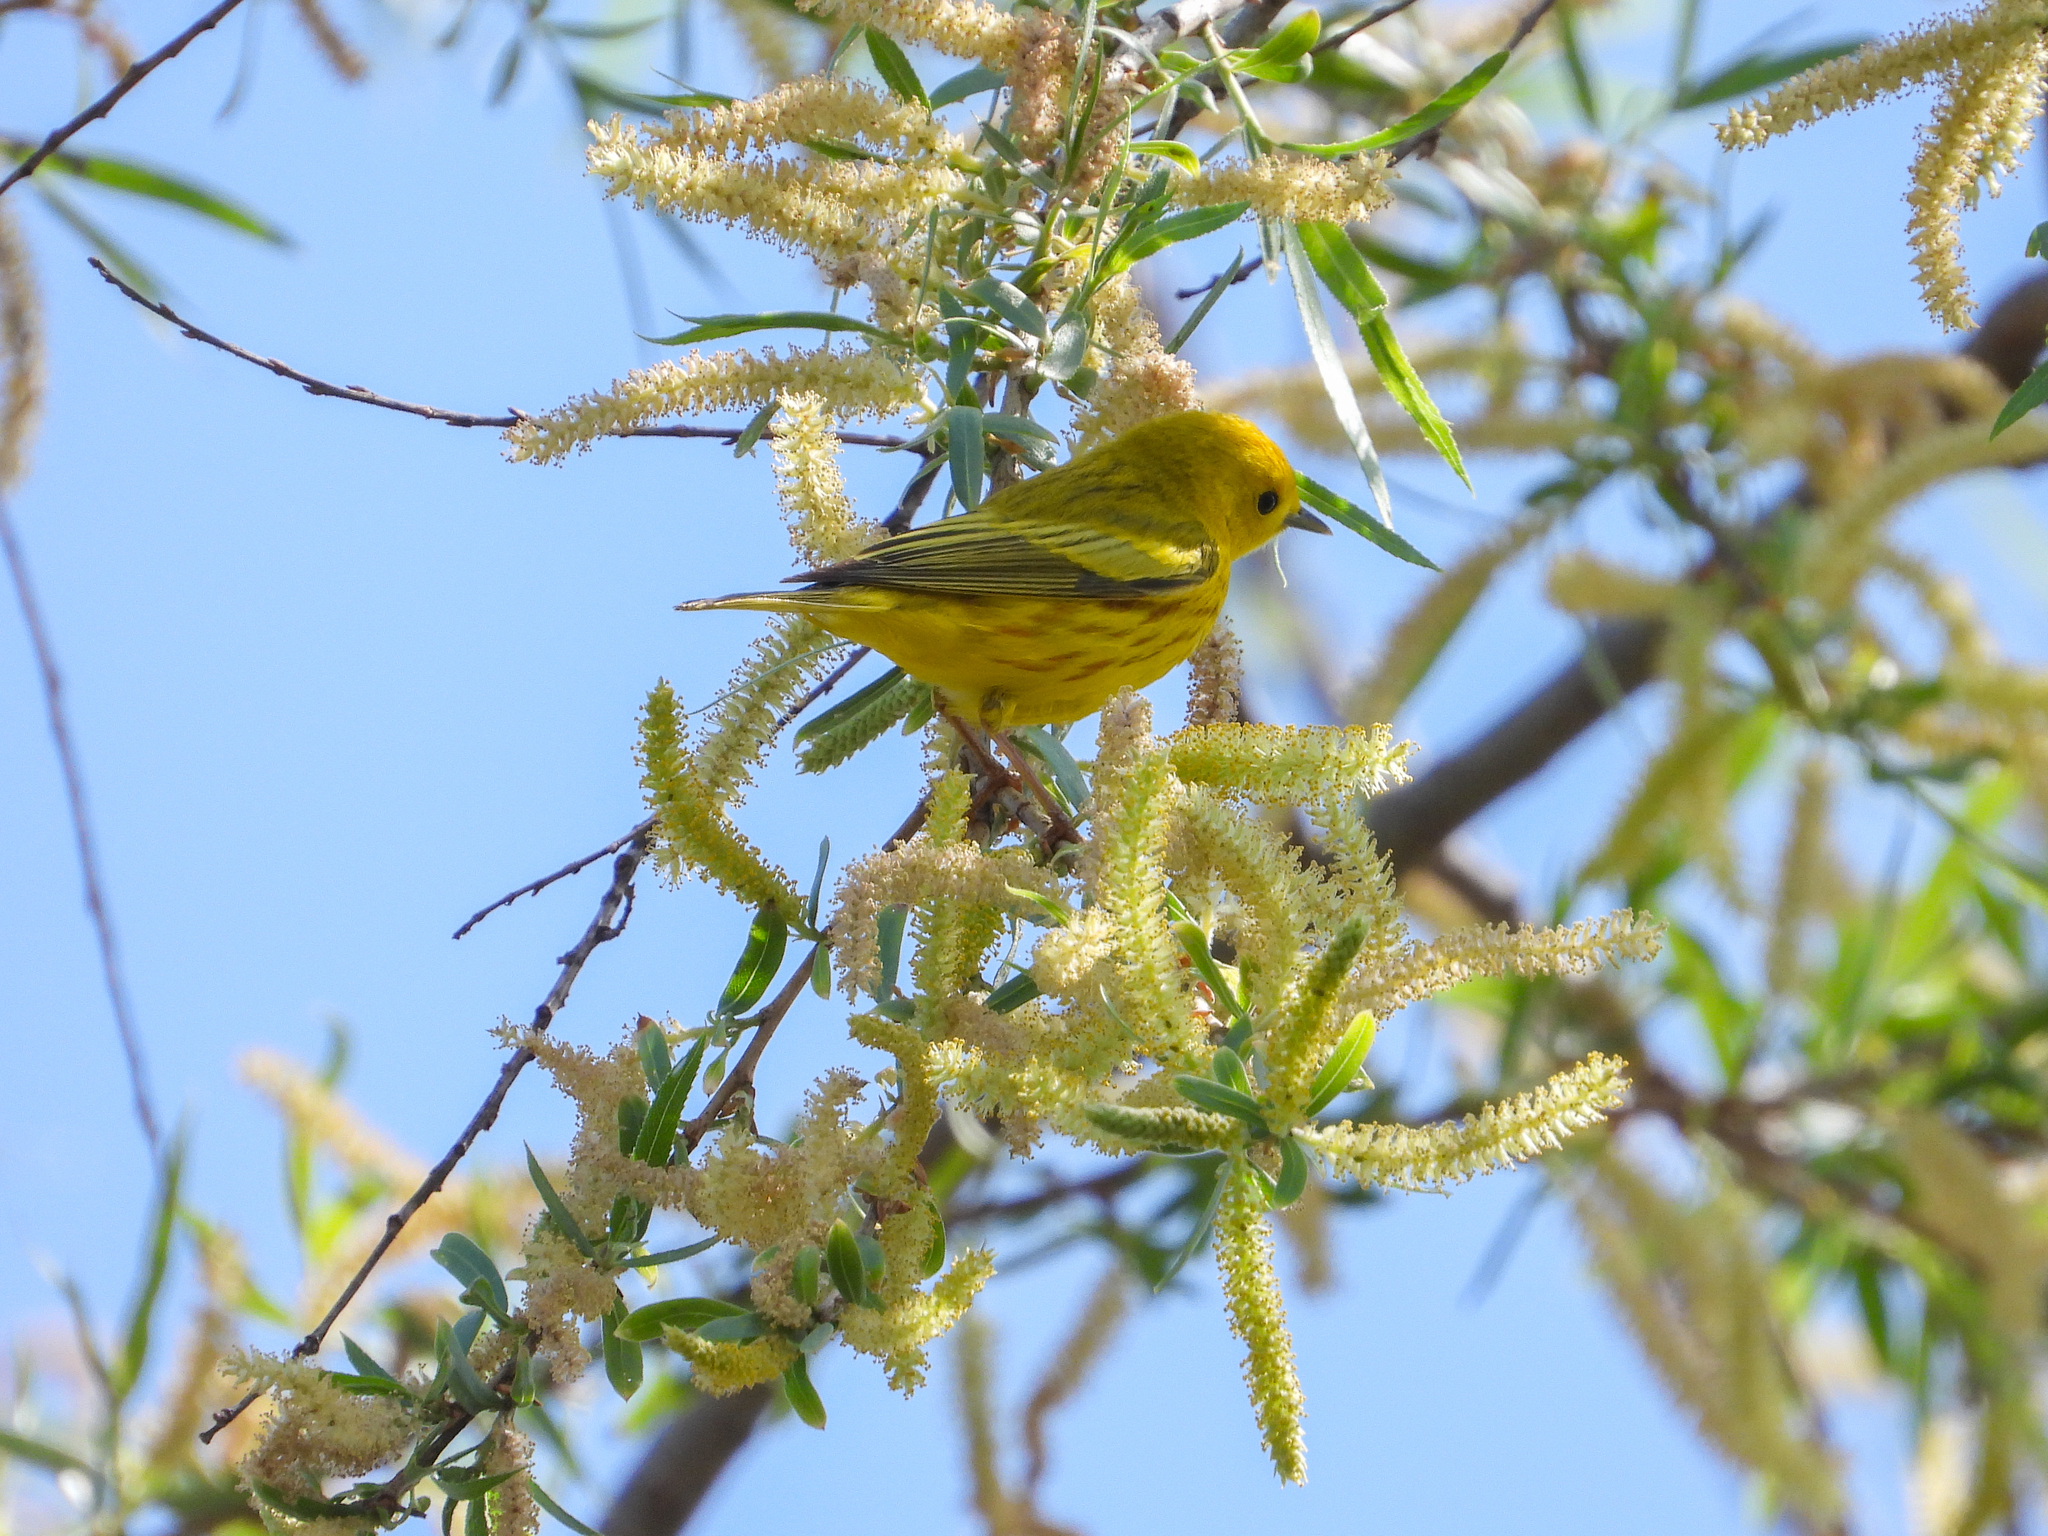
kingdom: Animalia
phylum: Chordata
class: Aves
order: Passeriformes
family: Parulidae
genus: Setophaga
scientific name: Setophaga petechia
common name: Yellow warbler
